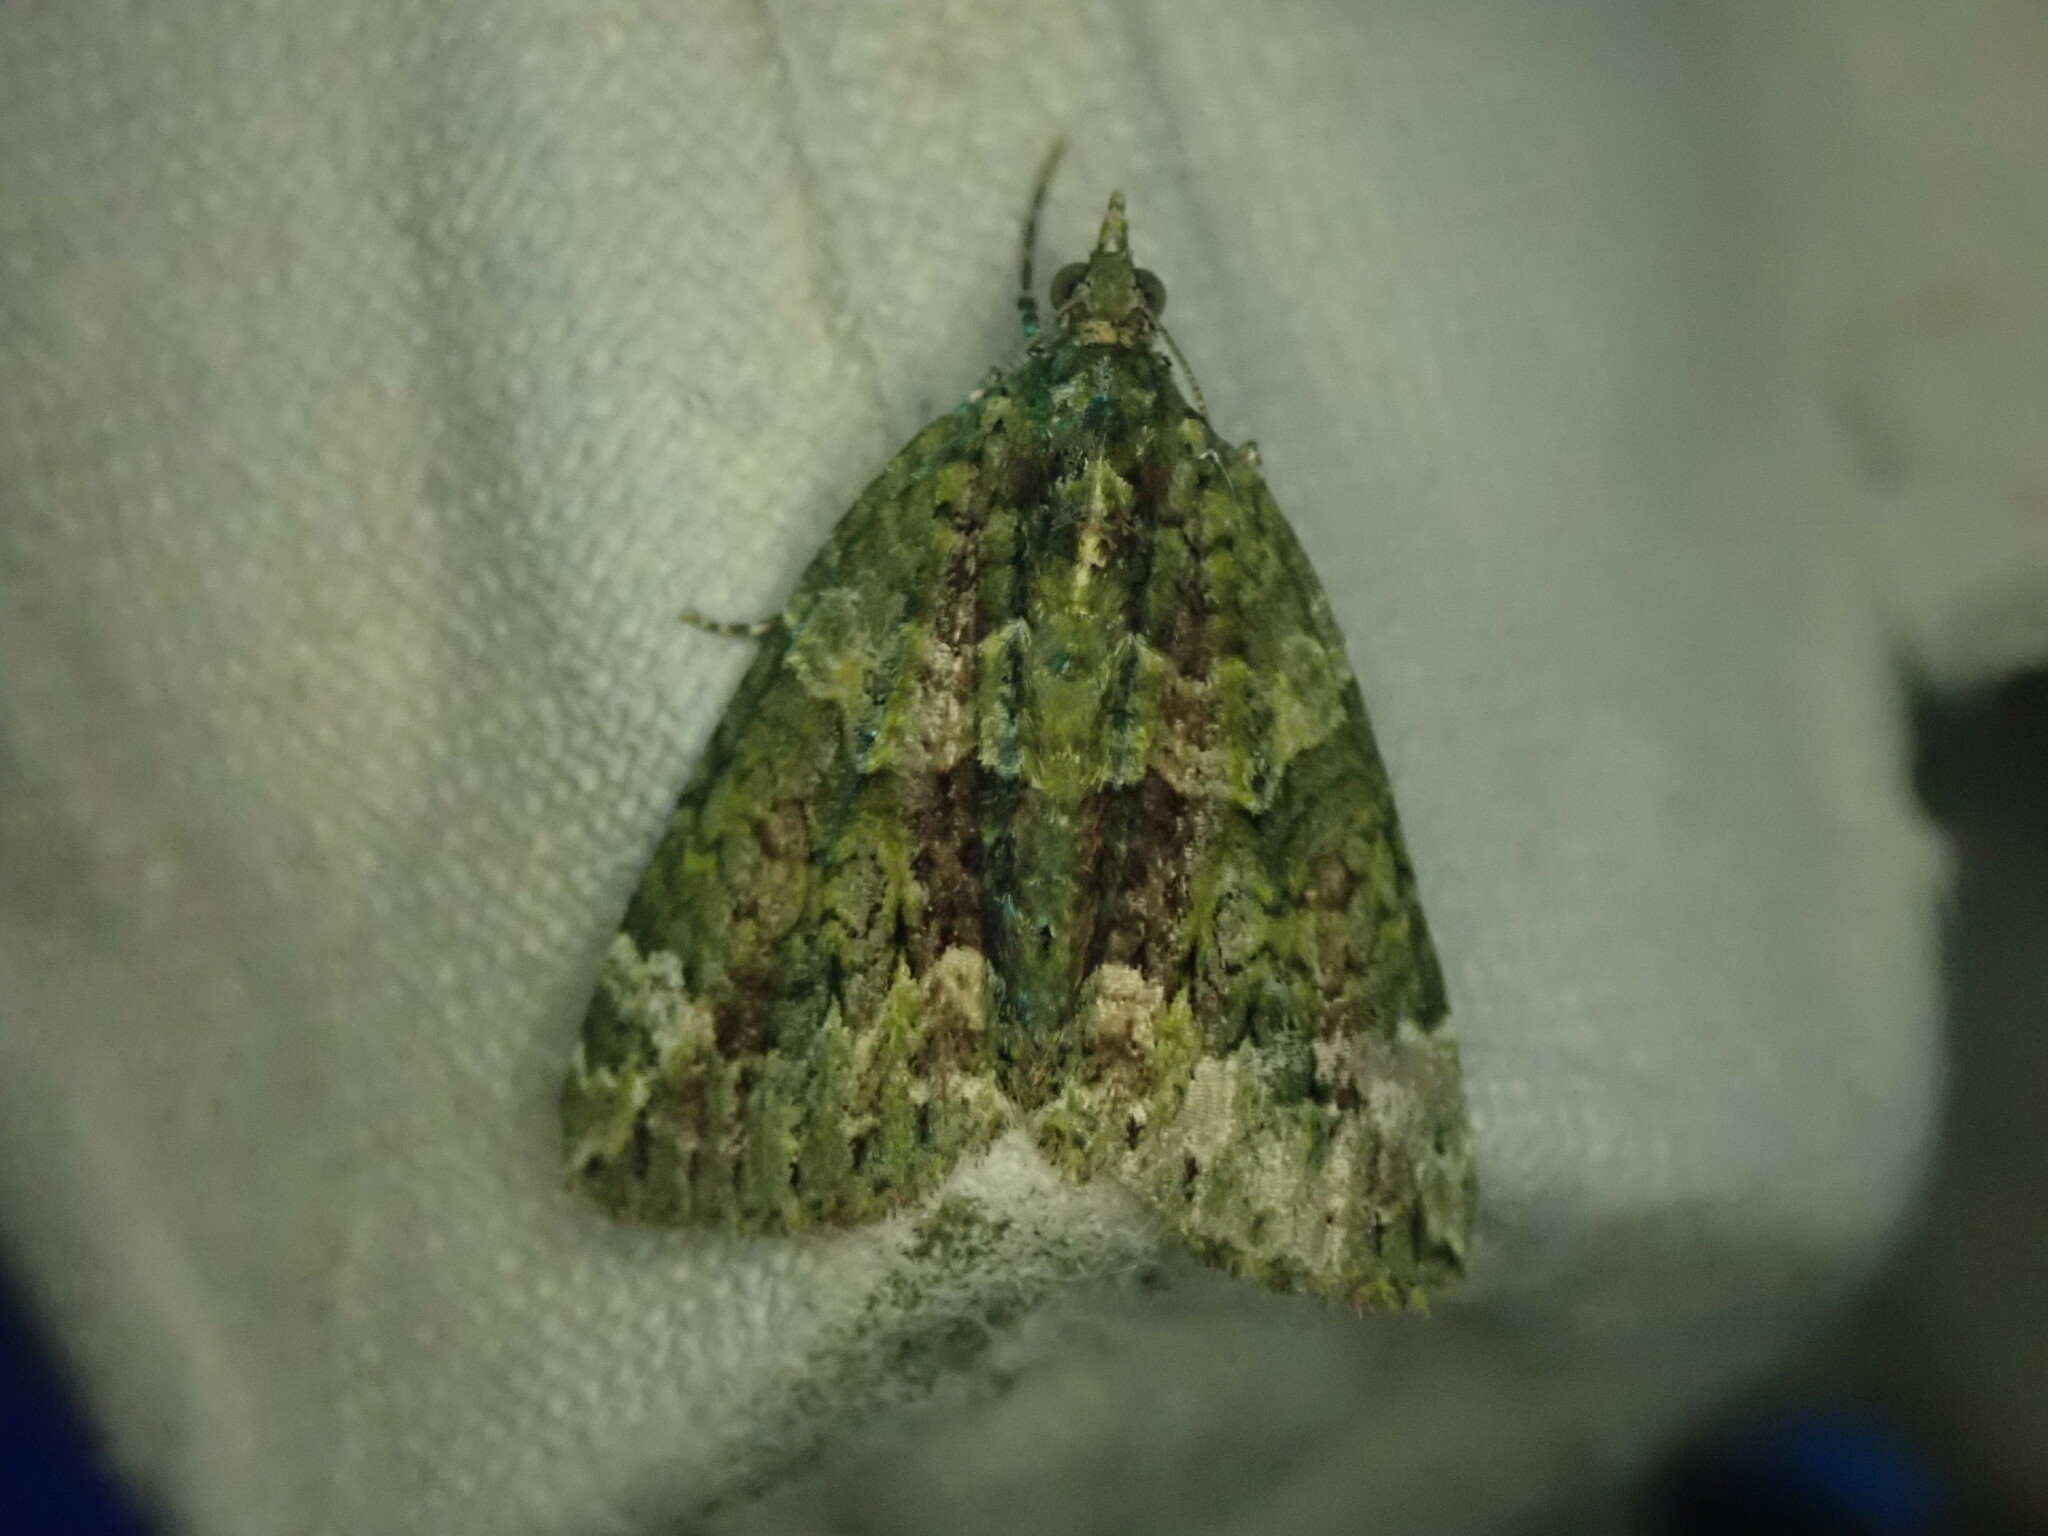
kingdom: Animalia
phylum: Arthropoda
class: Insecta
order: Lepidoptera
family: Geometridae
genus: Chloroclysta
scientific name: Chloroclysta siterata
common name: Red-green carpet
